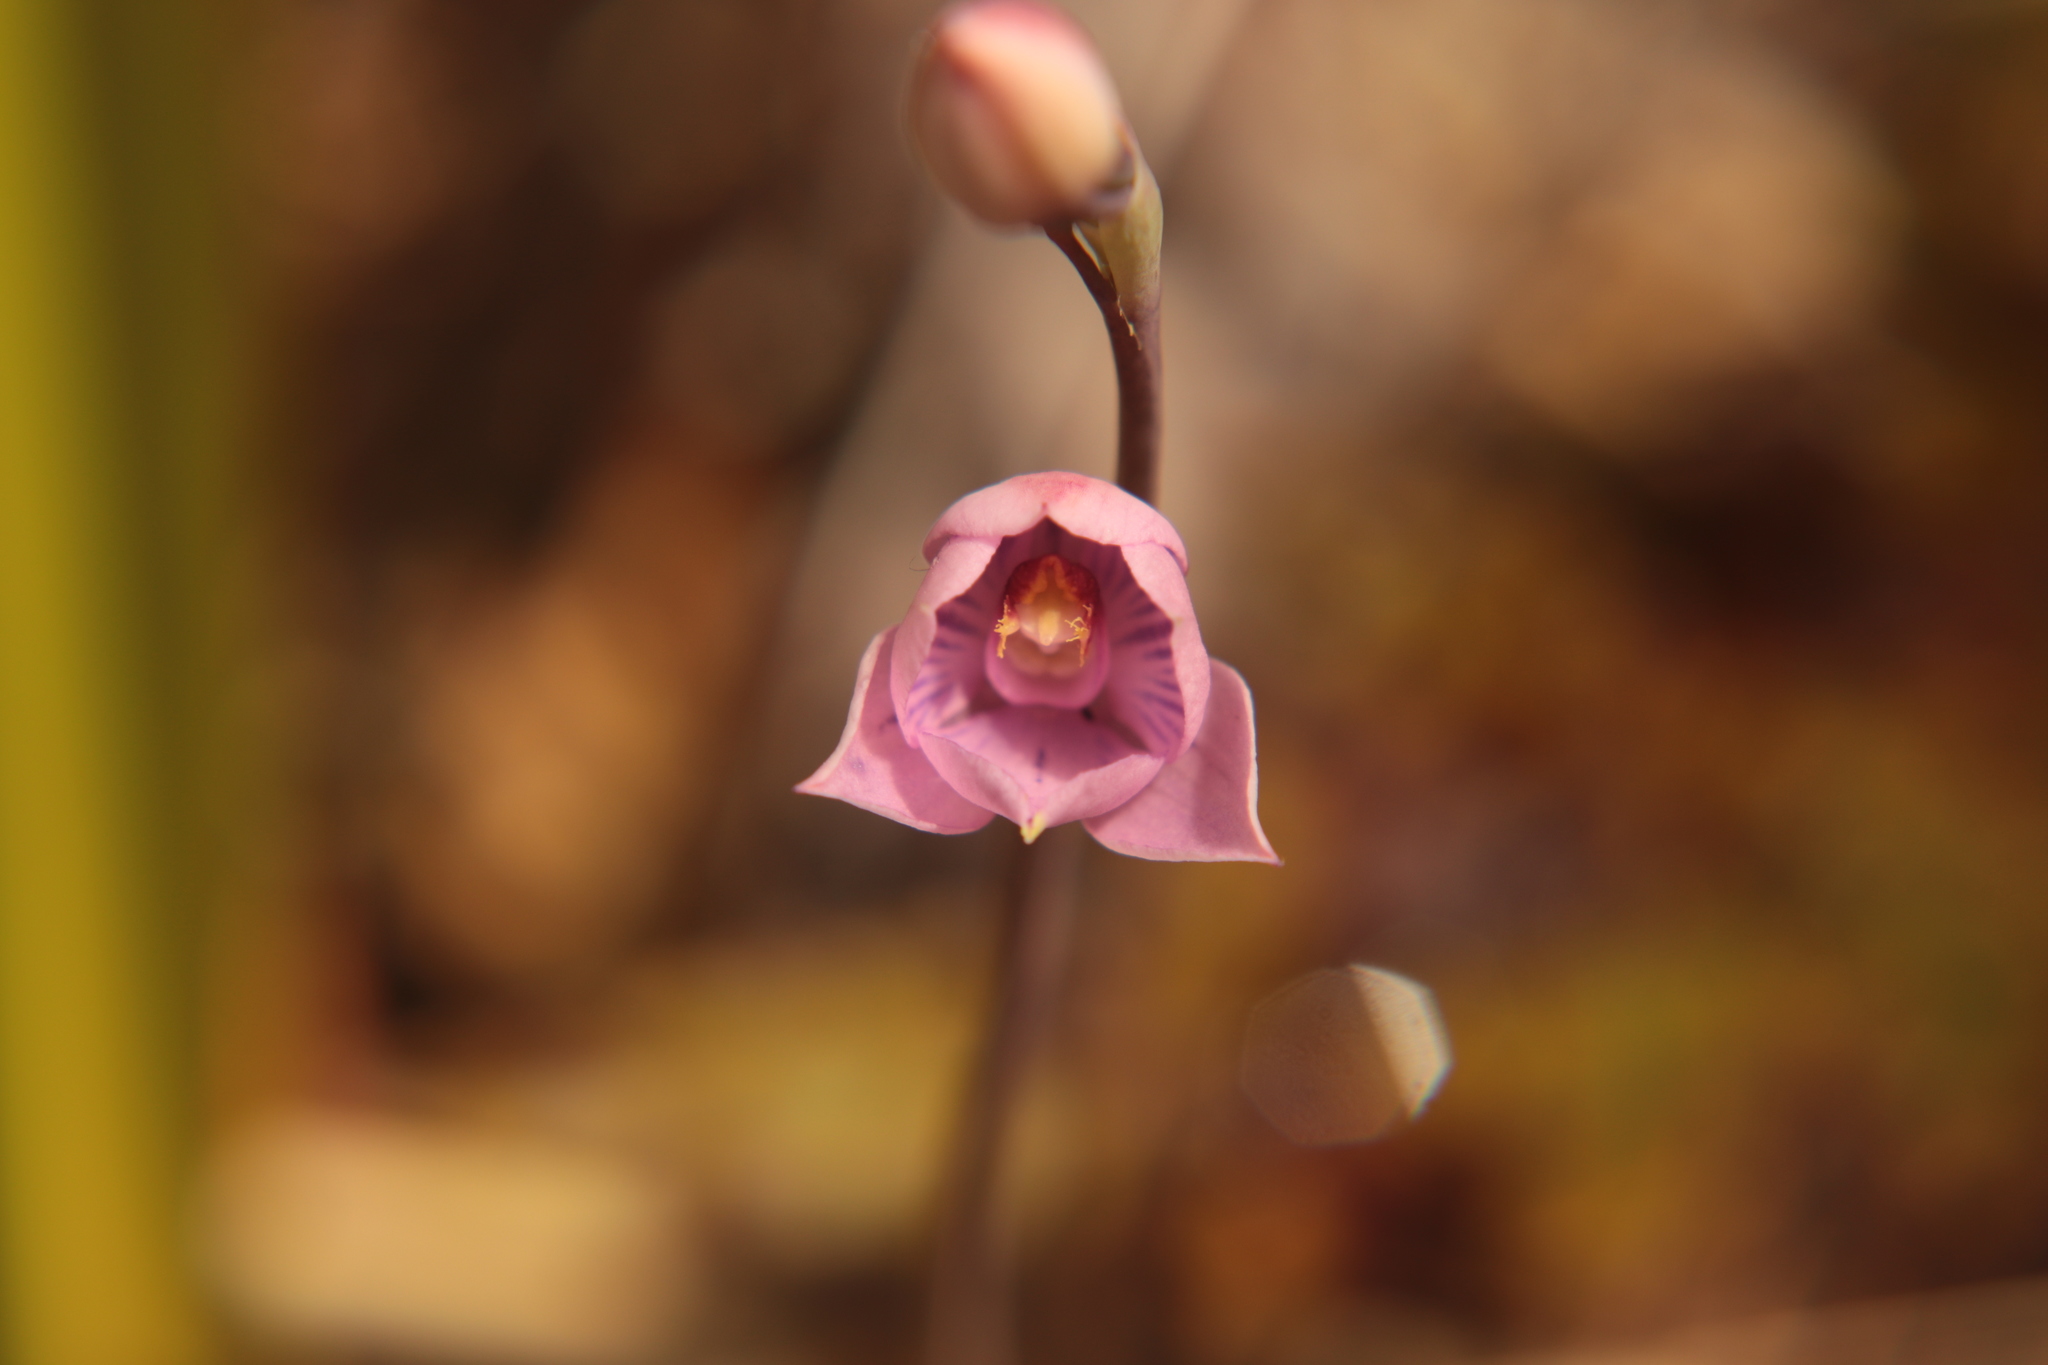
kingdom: Plantae
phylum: Tracheophyta
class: Liliopsida
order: Asparagales
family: Orchidaceae
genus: Thelymitra
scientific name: Thelymitra pulchella
